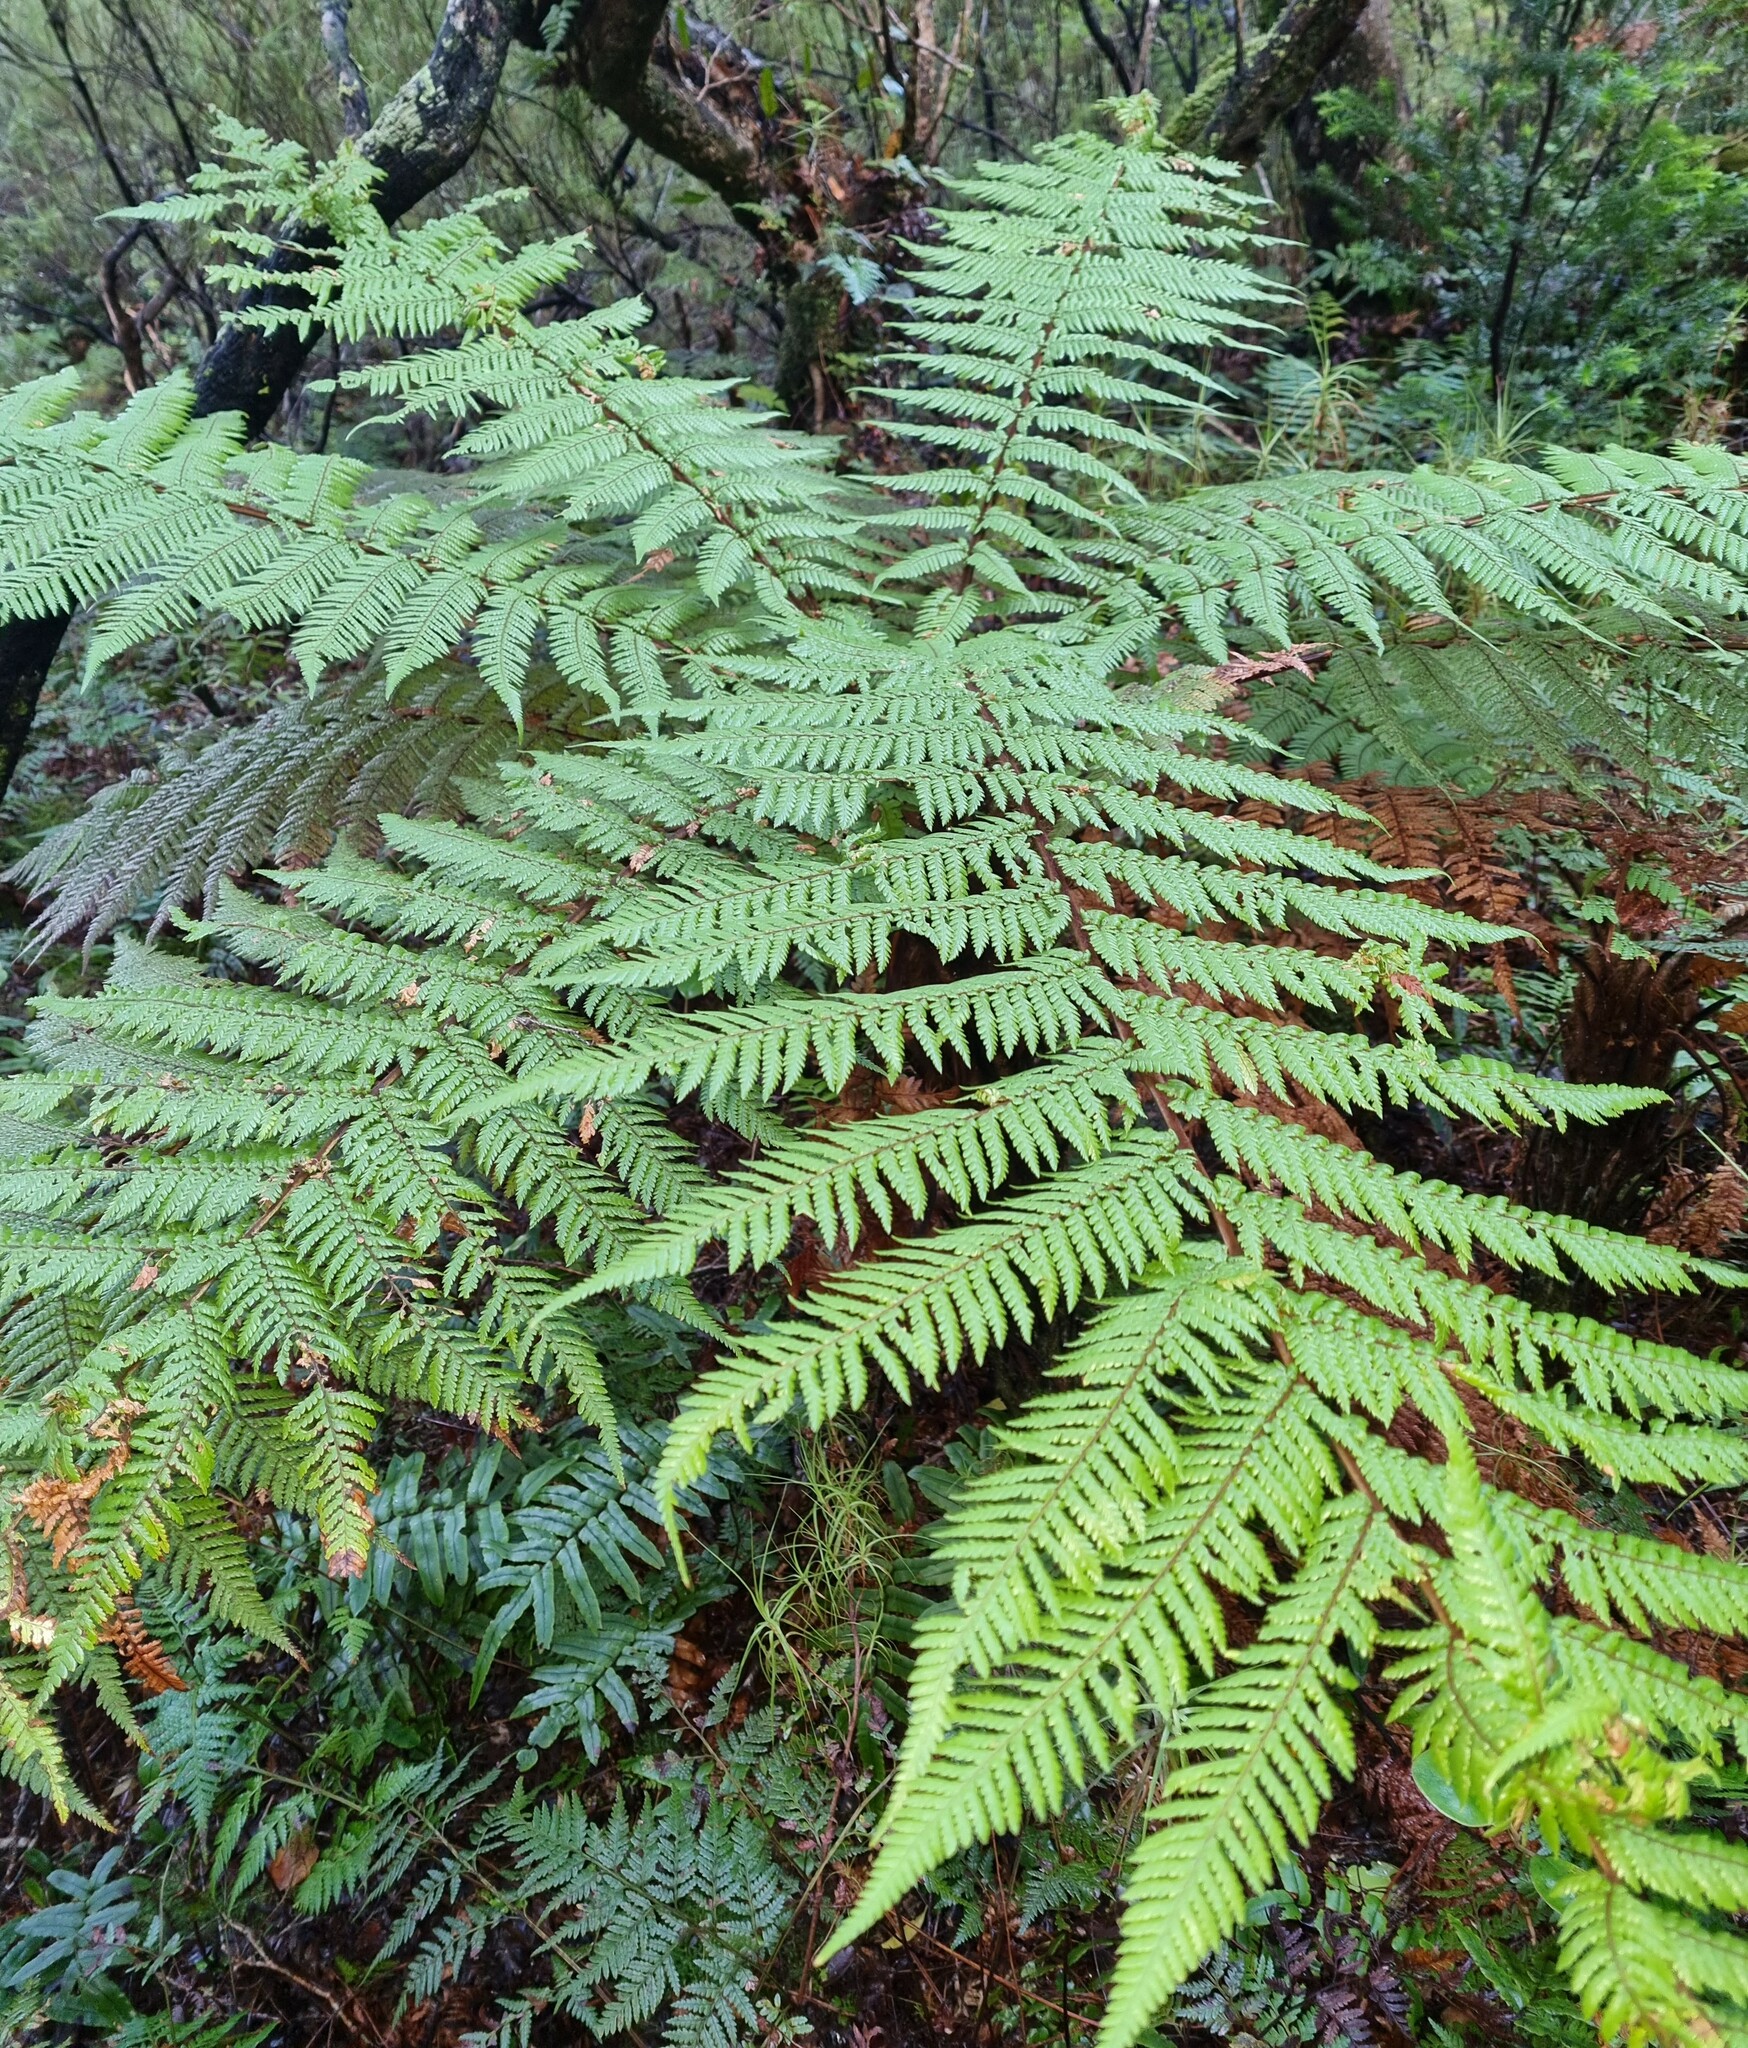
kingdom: Plantae
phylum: Tracheophyta
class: Polypodiopsida
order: Cyatheales
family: Dicksoniaceae
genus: Dicksonia
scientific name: Dicksonia squarrosa
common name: Hard treefern
